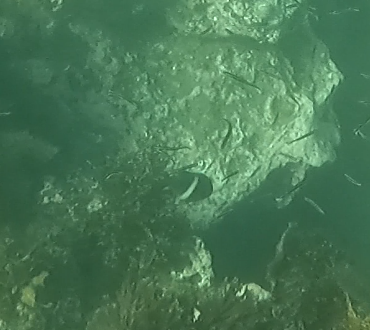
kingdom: Animalia
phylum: Chordata
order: Perciformes
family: Pomacentridae
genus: Parma
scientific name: Parma unifasciata
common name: Girdled parma
